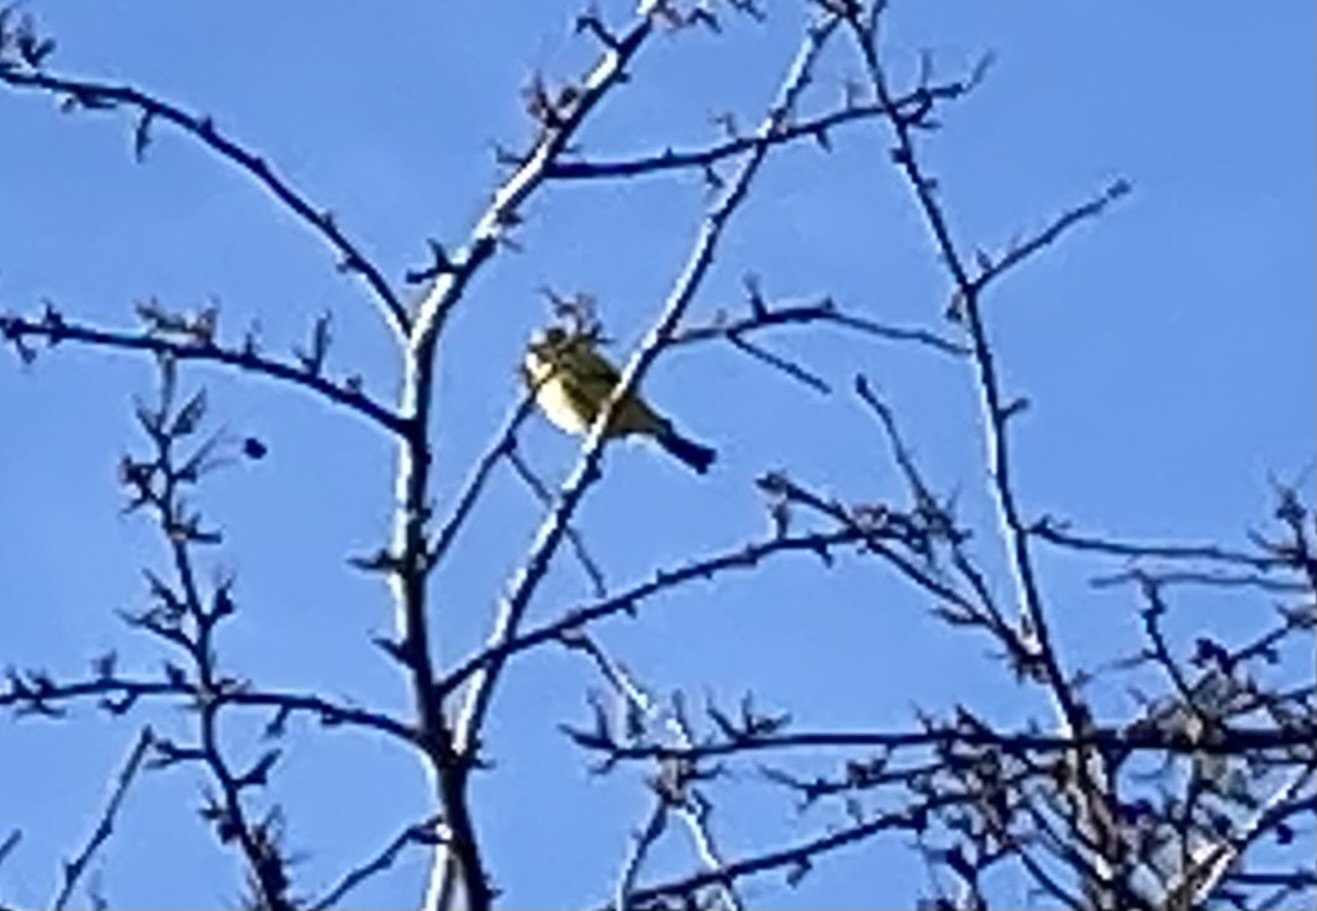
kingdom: Animalia
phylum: Chordata
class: Aves
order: Passeriformes
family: Paridae
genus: Cyanistes
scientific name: Cyanistes caeruleus
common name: Eurasian blue tit
